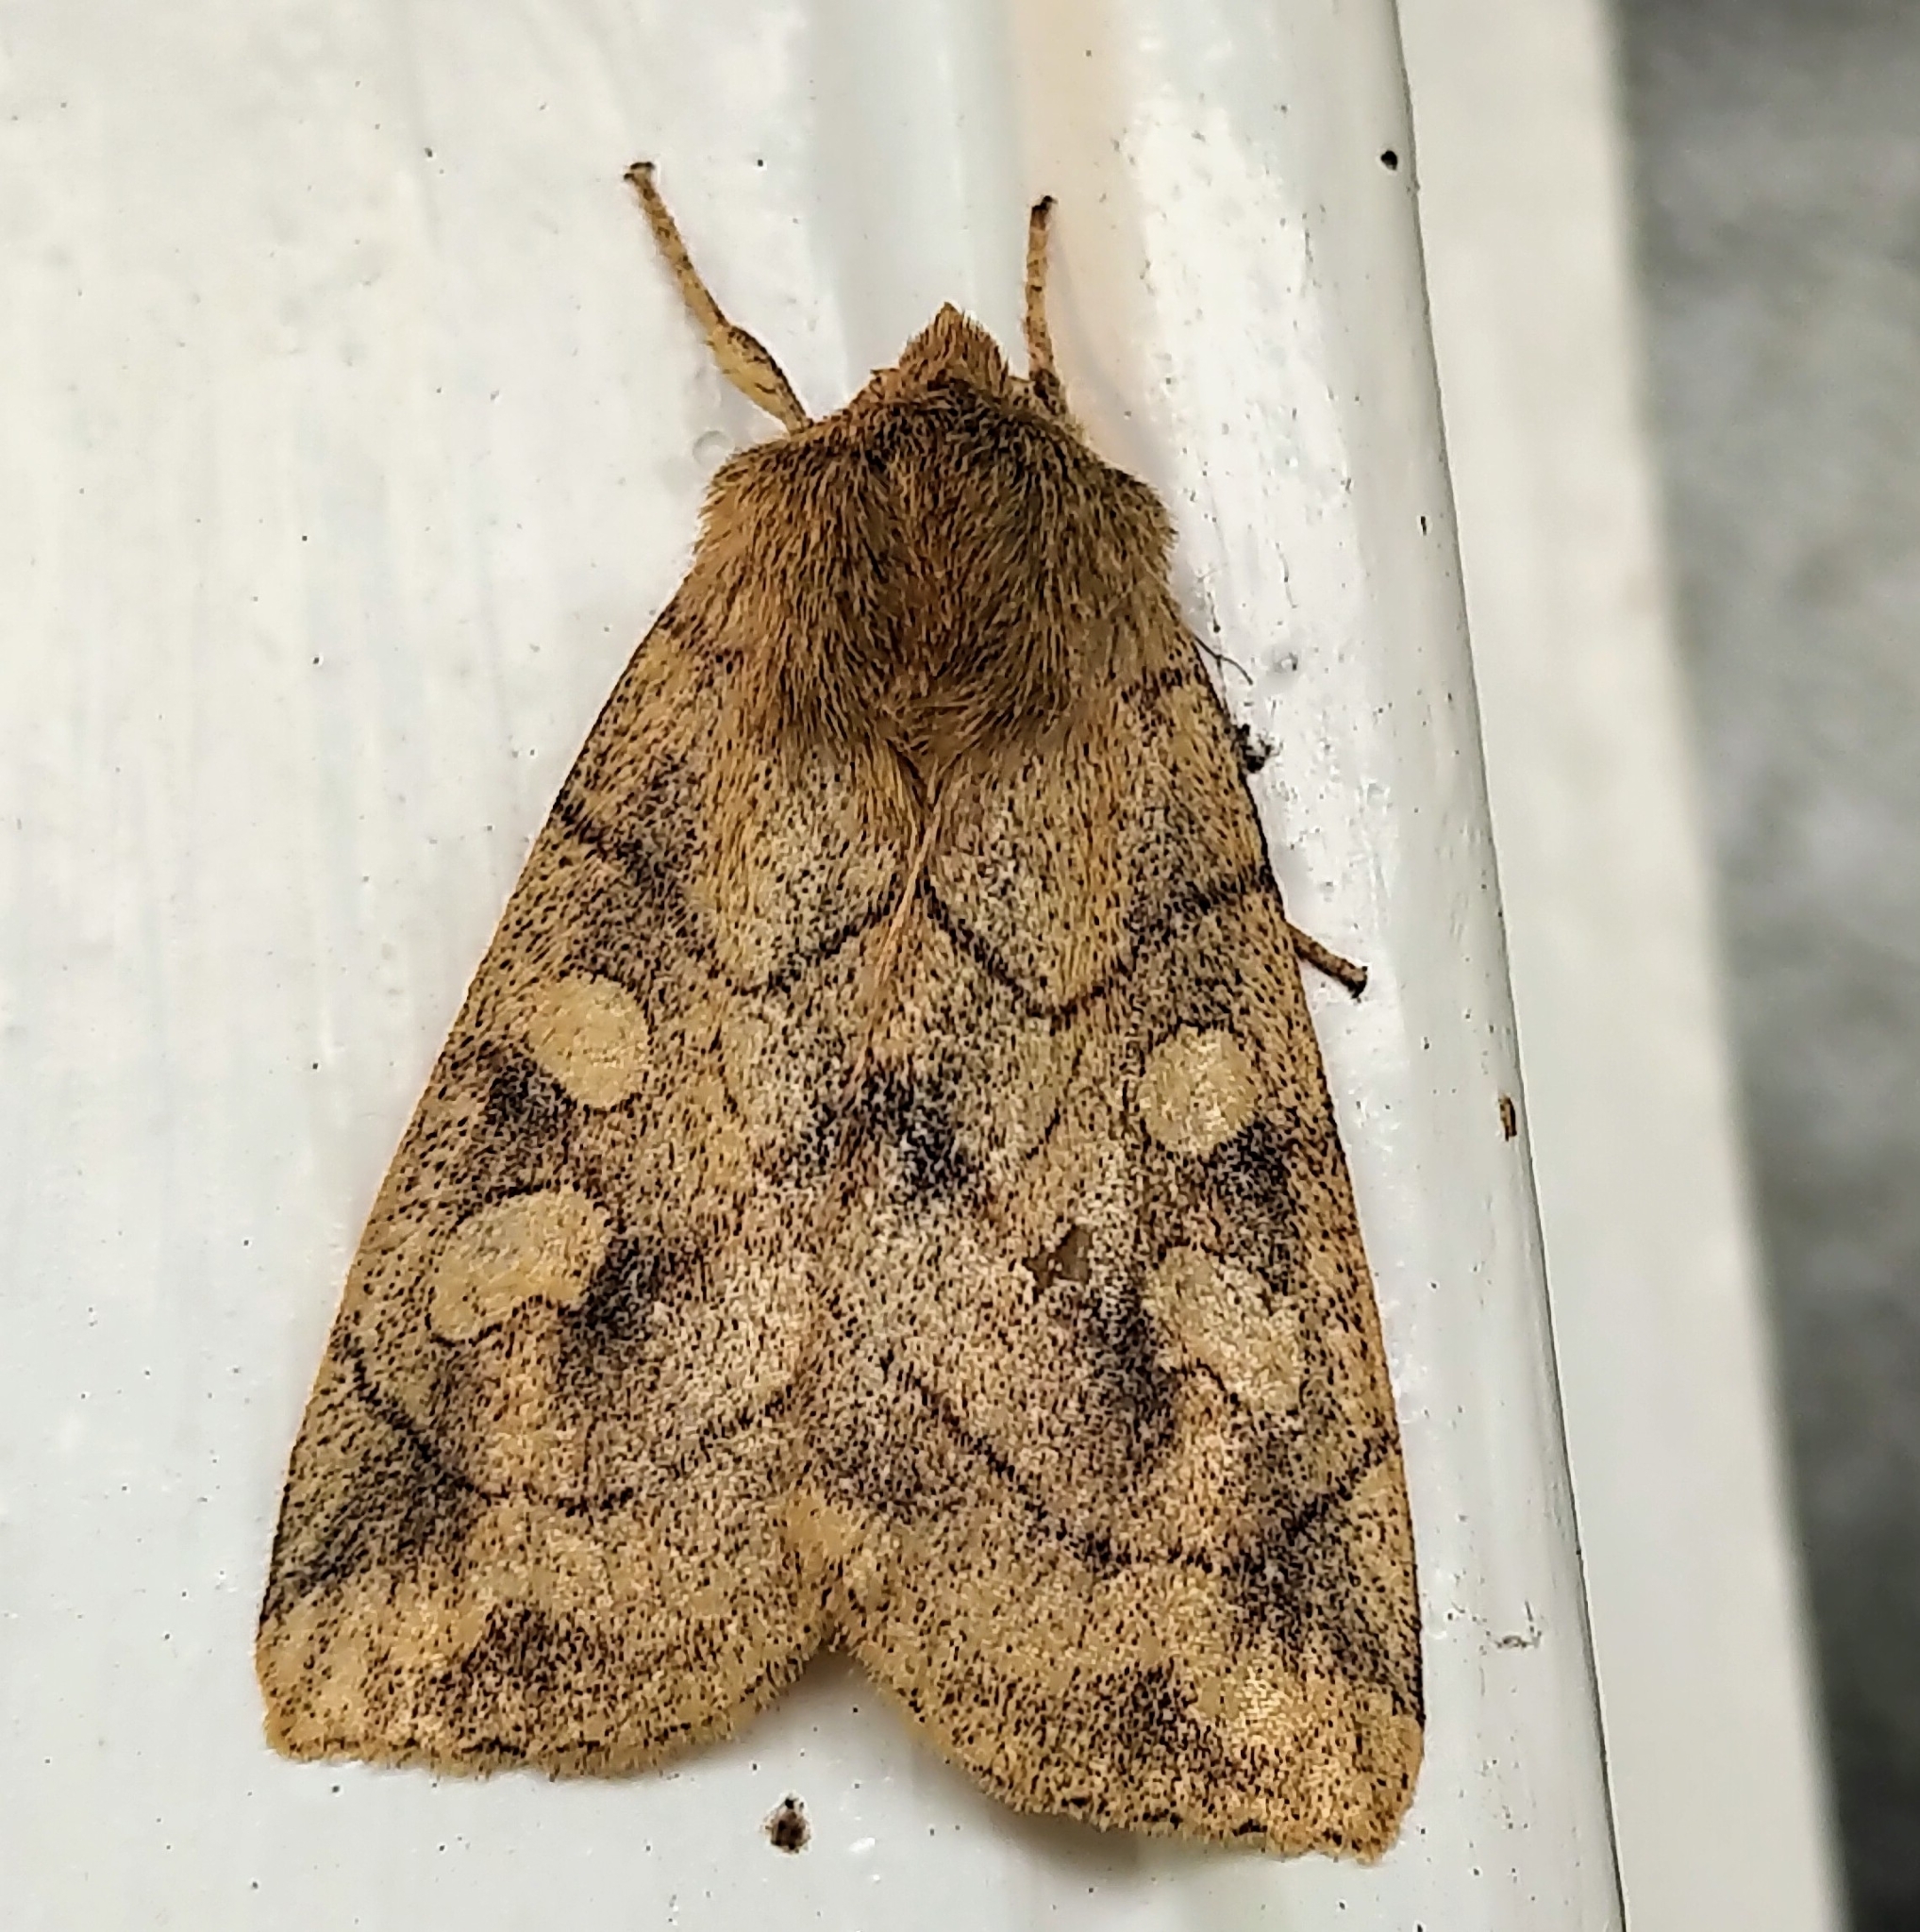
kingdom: Animalia
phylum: Arthropoda
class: Insecta
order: Lepidoptera
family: Noctuidae
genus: Enargia
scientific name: Enargia decolor
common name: Aspen twoleaf tier moth
